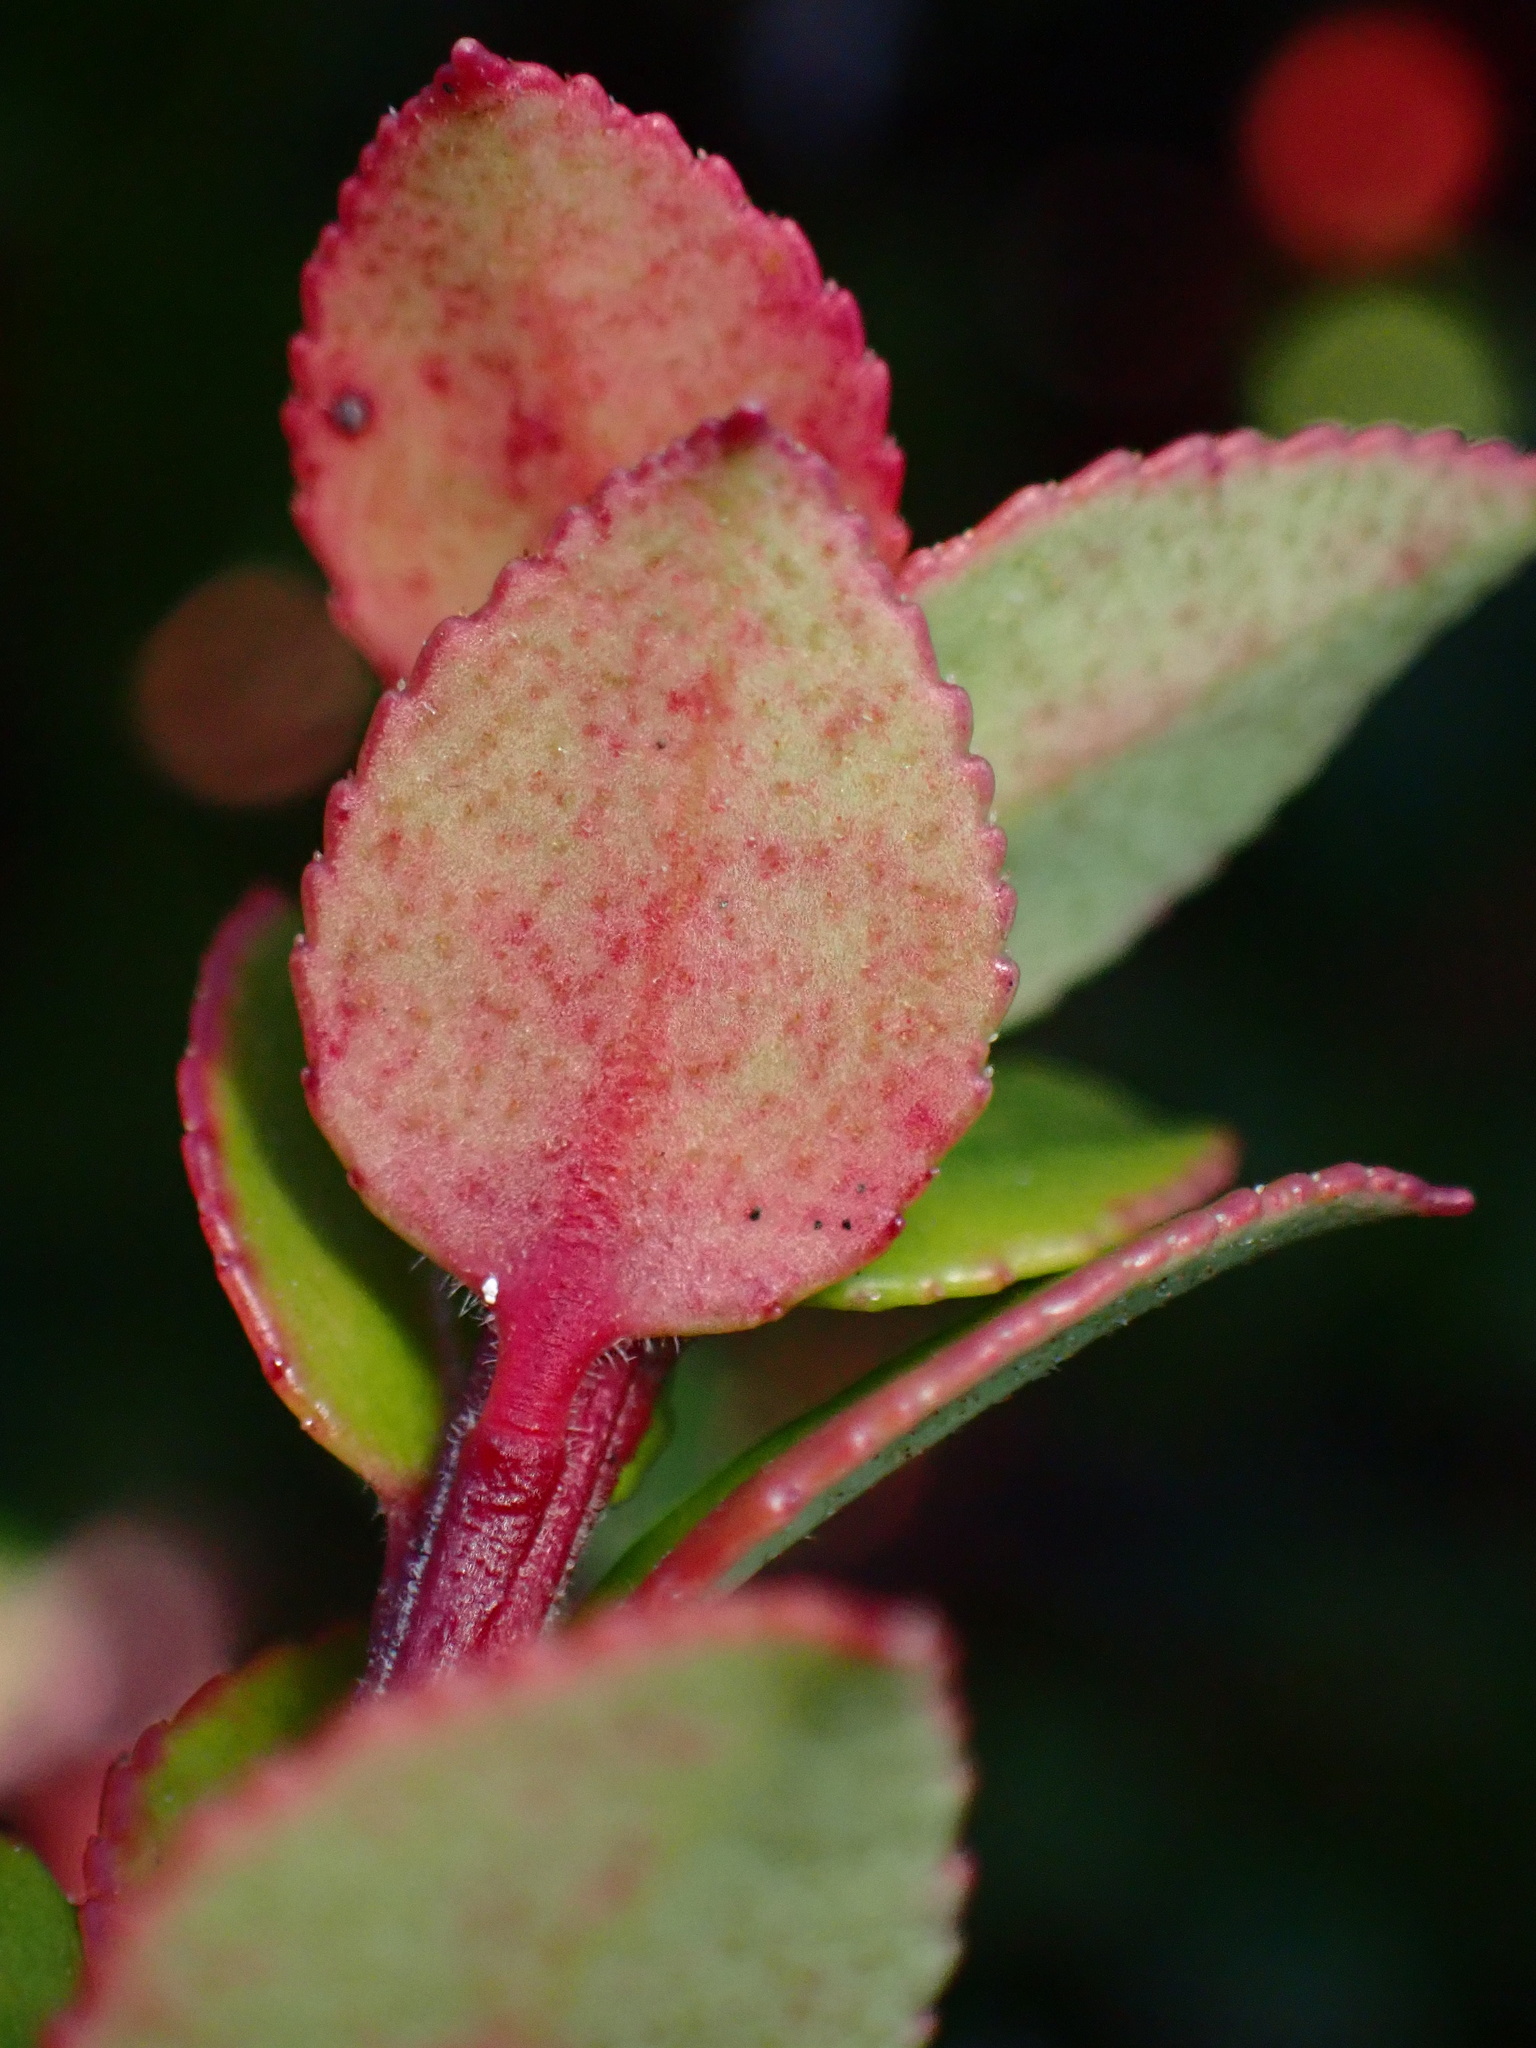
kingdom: Plantae
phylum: Tracheophyta
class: Magnoliopsida
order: Ericales
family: Ericaceae
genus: Vaccinium
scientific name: Vaccinium ovatum
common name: California-huckleberry
